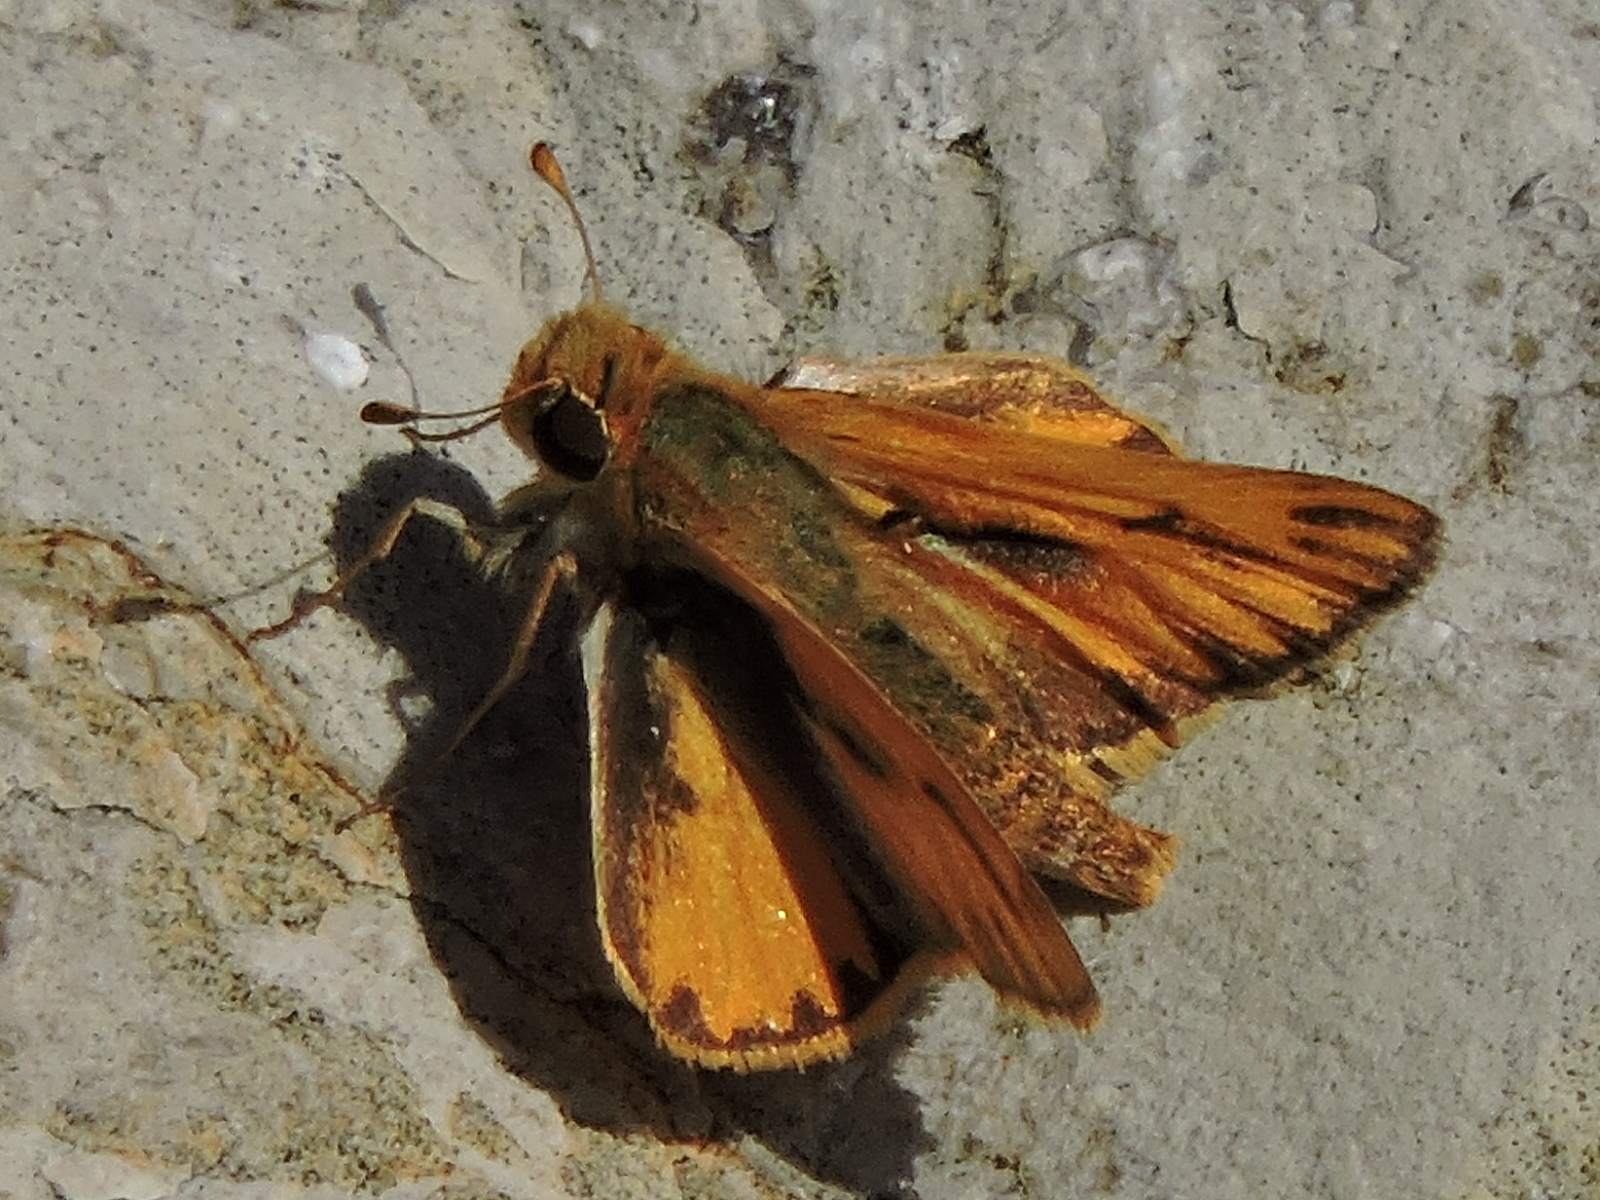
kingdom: Animalia
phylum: Arthropoda
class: Insecta
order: Lepidoptera
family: Hesperiidae
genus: Hylephila
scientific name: Hylephila phyleus
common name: Fiery skipper
